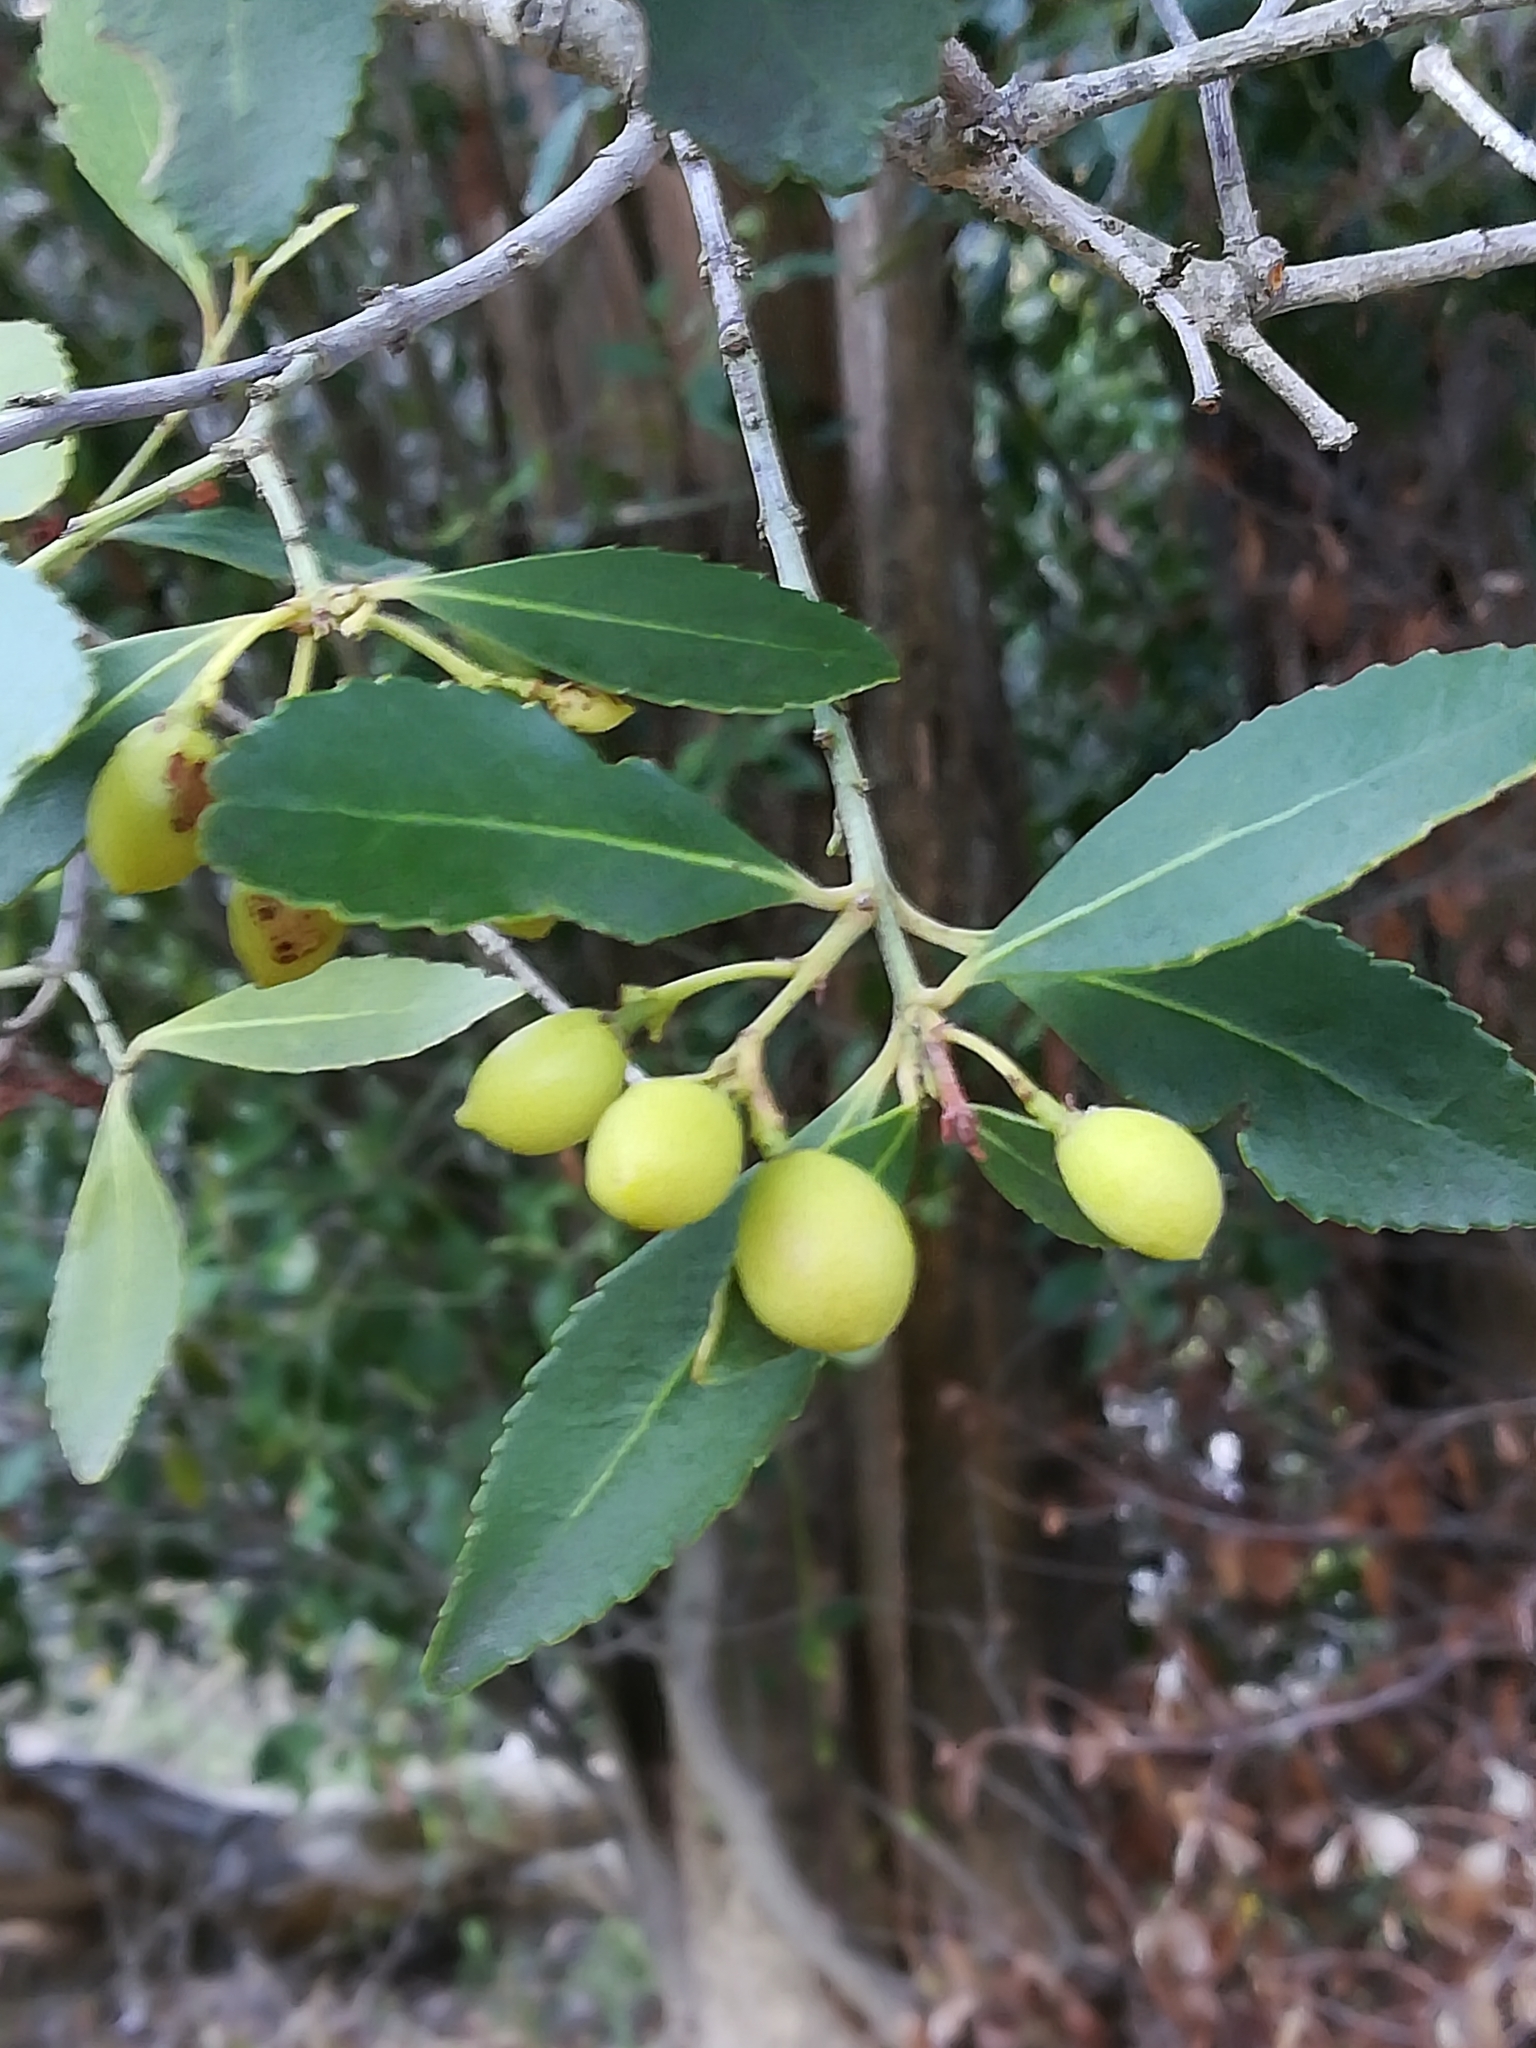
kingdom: Plantae
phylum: Tracheophyta
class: Magnoliopsida
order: Celastrales
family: Celastraceae
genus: Elaeodendron
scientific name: Elaeodendron schinoides
